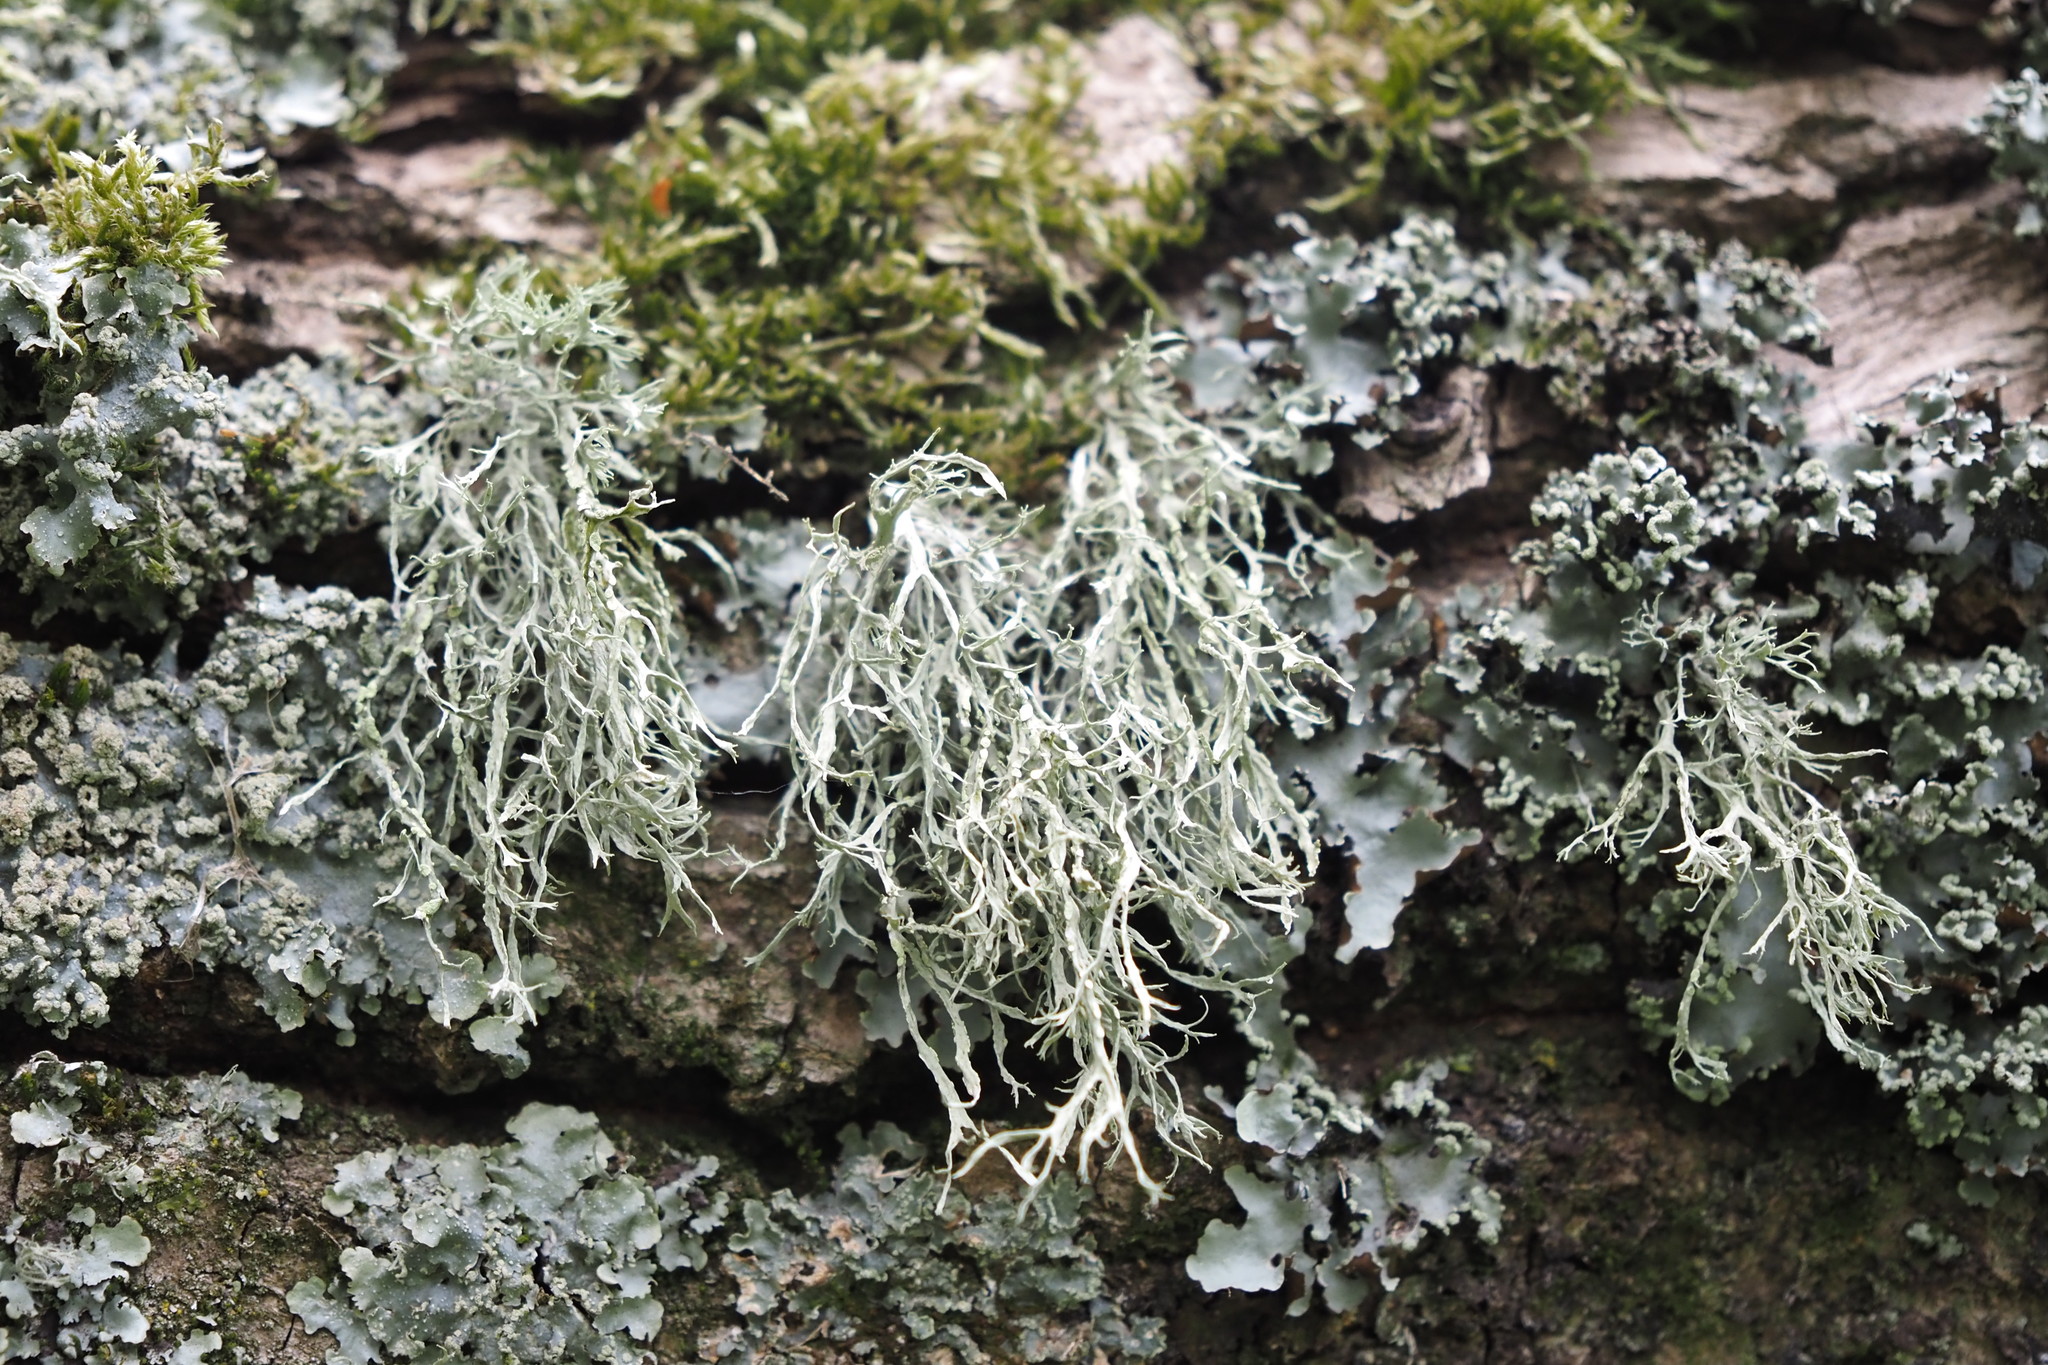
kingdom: Fungi
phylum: Ascomycota
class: Lecanoromycetes
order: Lecanorales
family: Ramalinaceae
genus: Ramalina
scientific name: Ramalina farinacea
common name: Farinose cartilage lichen
